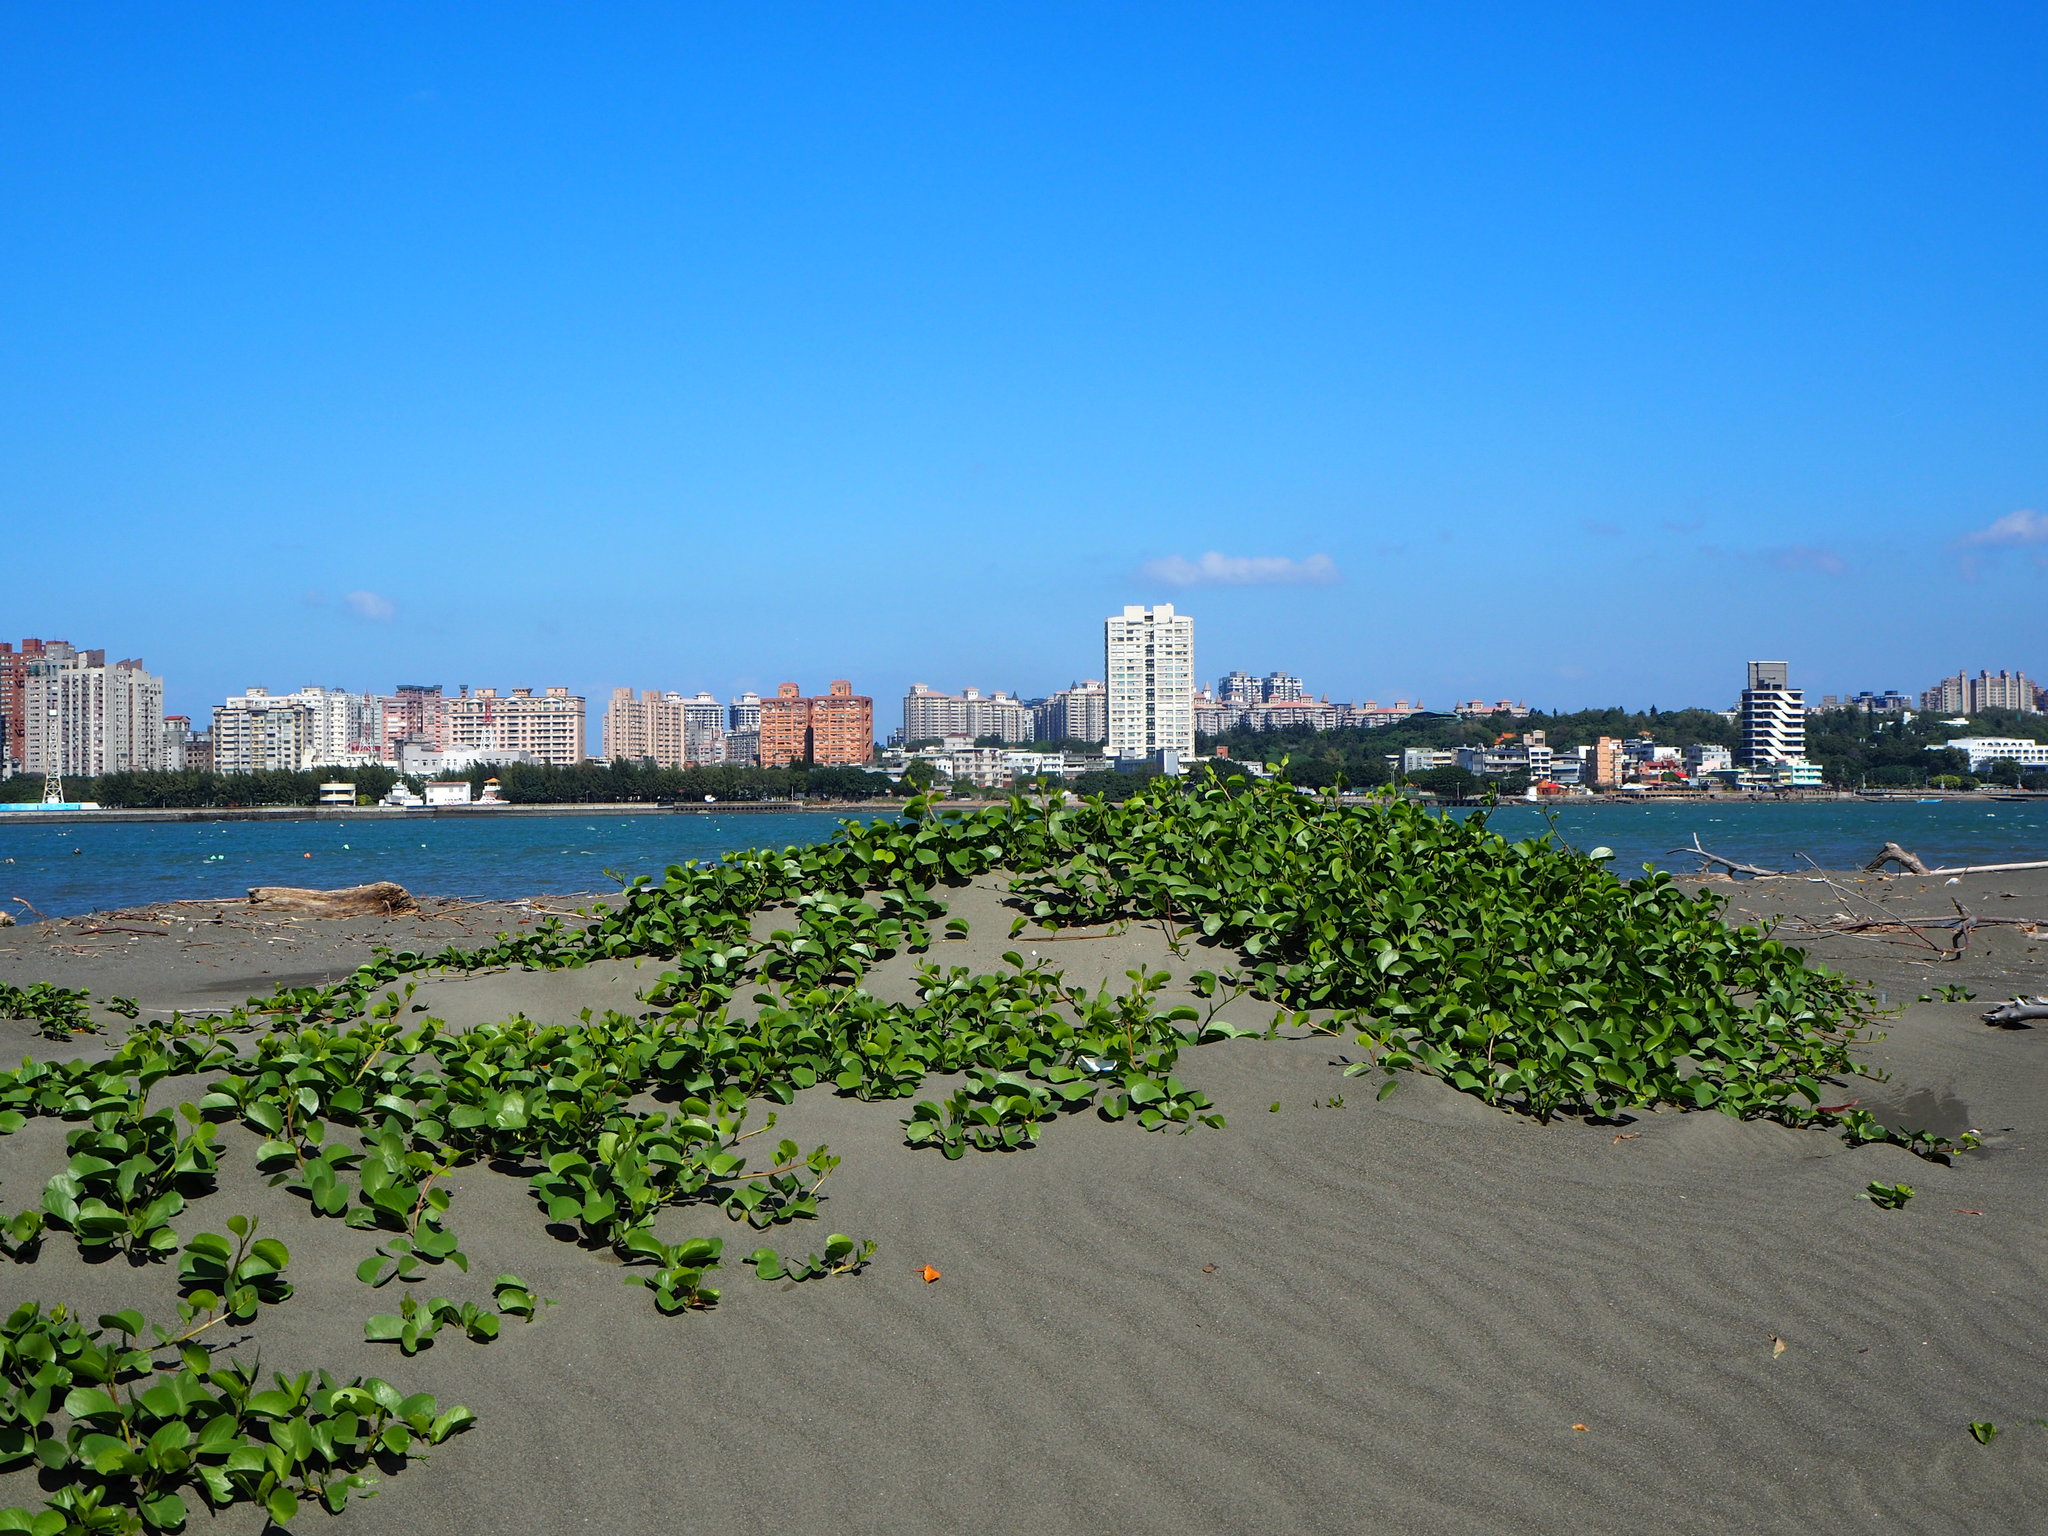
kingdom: Plantae
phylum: Tracheophyta
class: Magnoliopsida
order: Solanales
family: Convolvulaceae
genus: Ipomoea
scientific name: Ipomoea pes-caprae
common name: Beach morning glory
